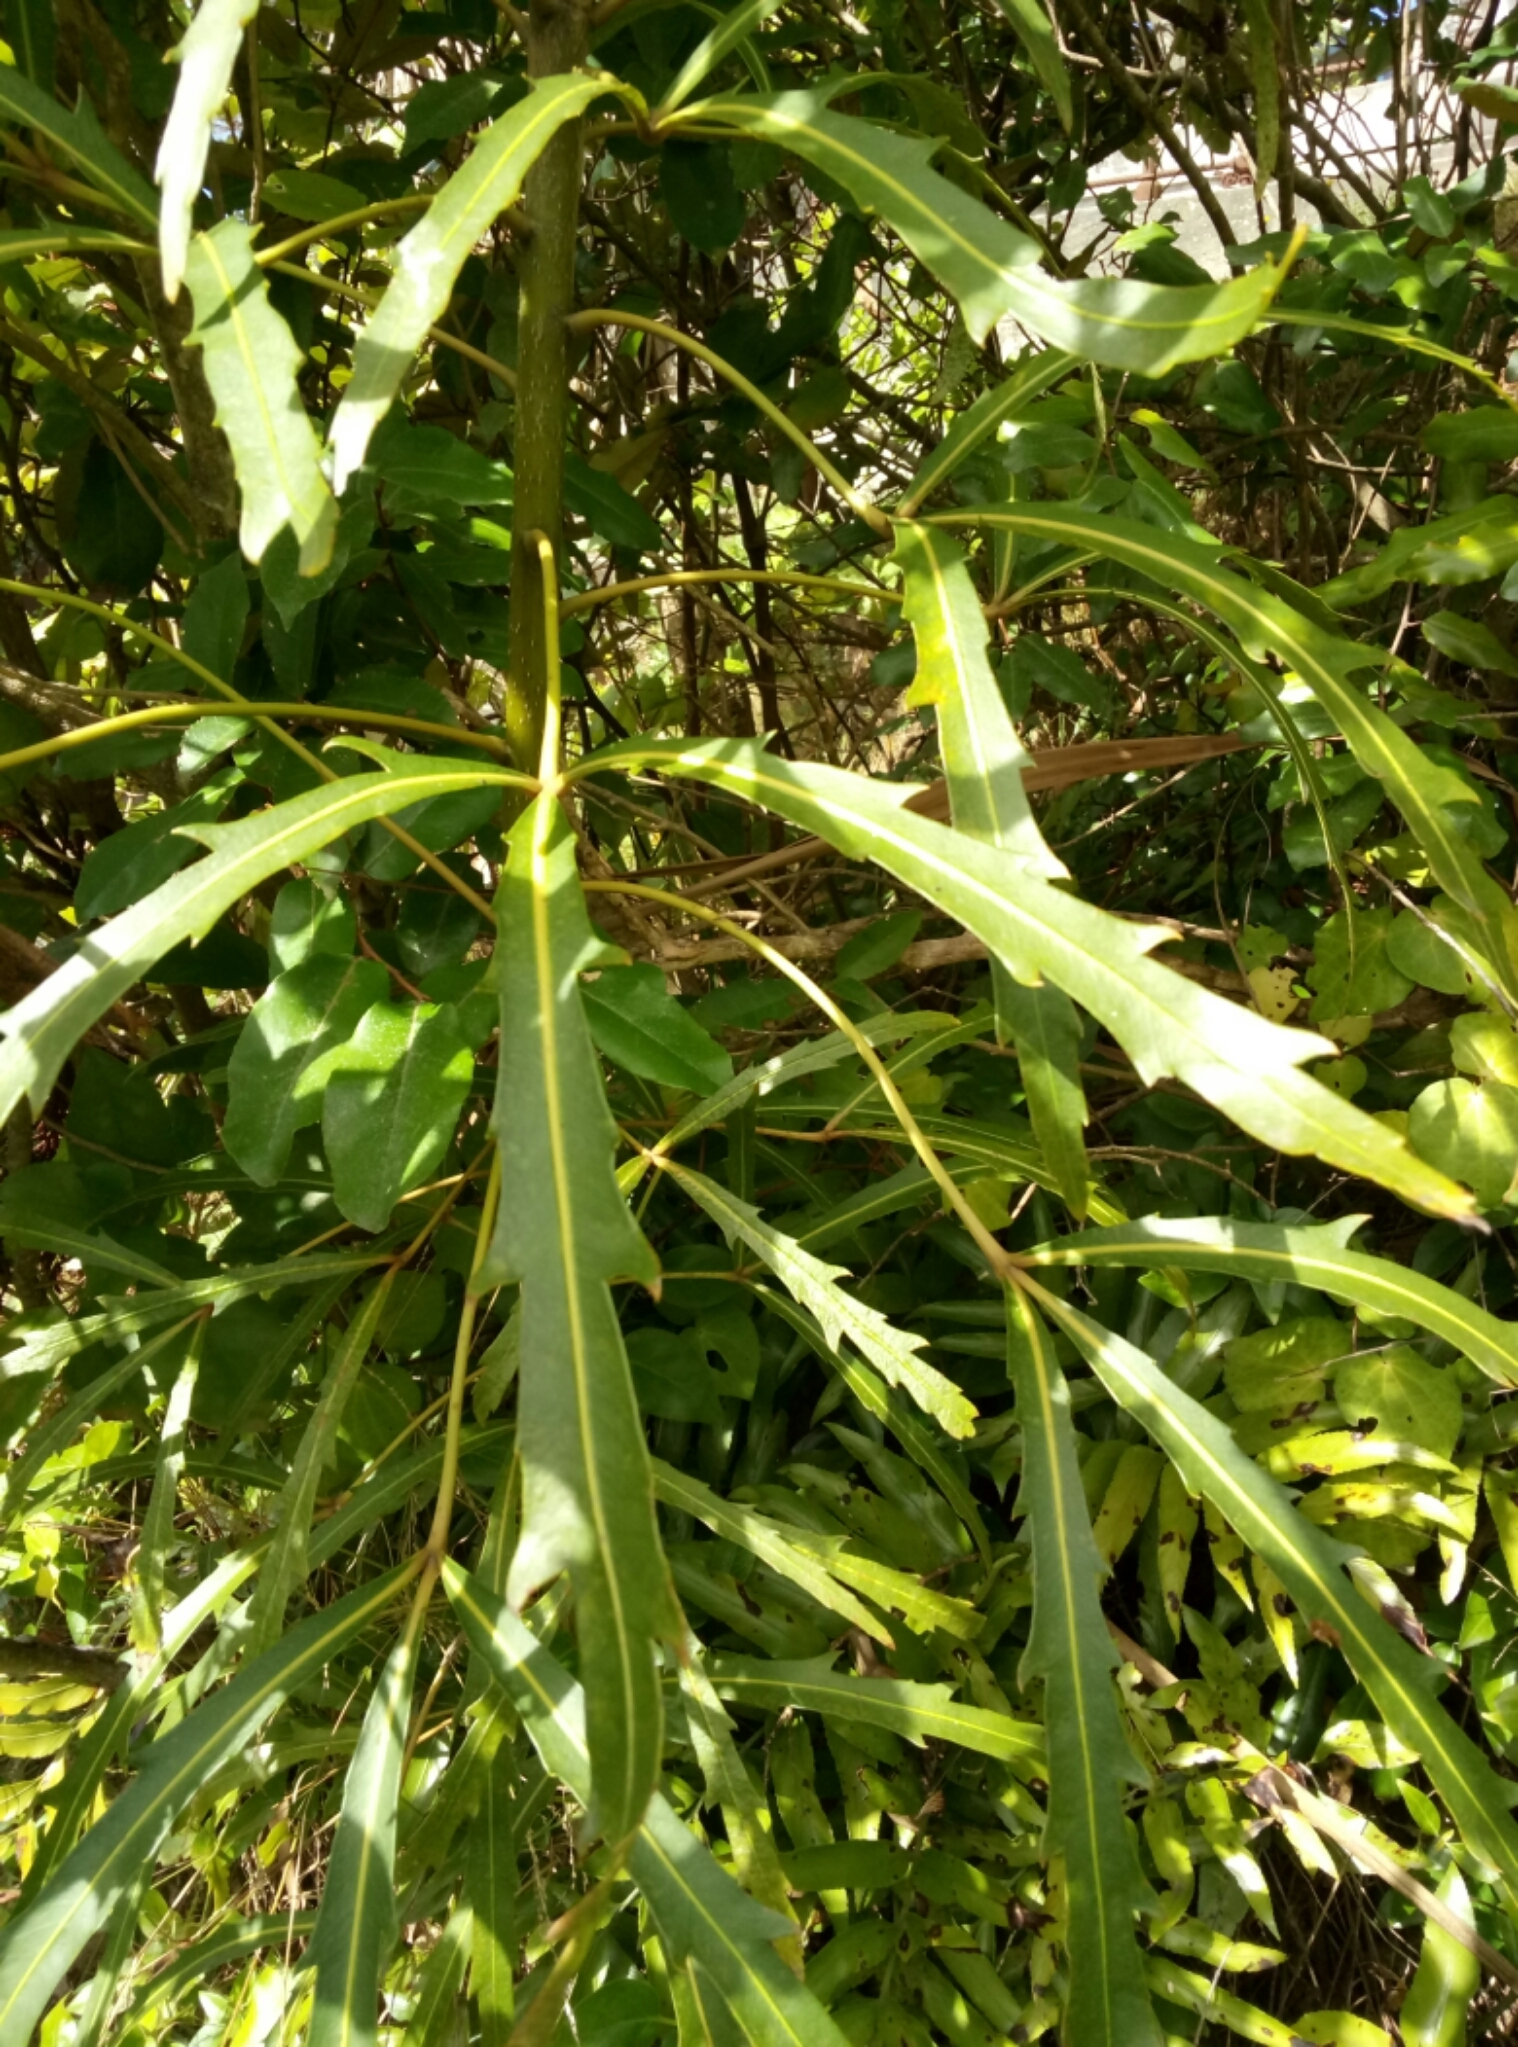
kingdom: Plantae
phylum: Tracheophyta
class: Magnoliopsida
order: Apiales
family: Araliaceae
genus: Pseudopanax
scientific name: Pseudopanax
